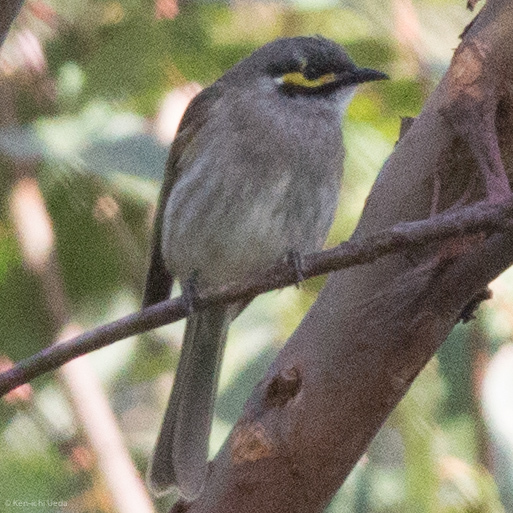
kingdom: Animalia
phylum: Chordata
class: Aves
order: Passeriformes
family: Meliphagidae
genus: Caligavis
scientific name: Caligavis chrysops
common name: Yellow-faced honeyeater
